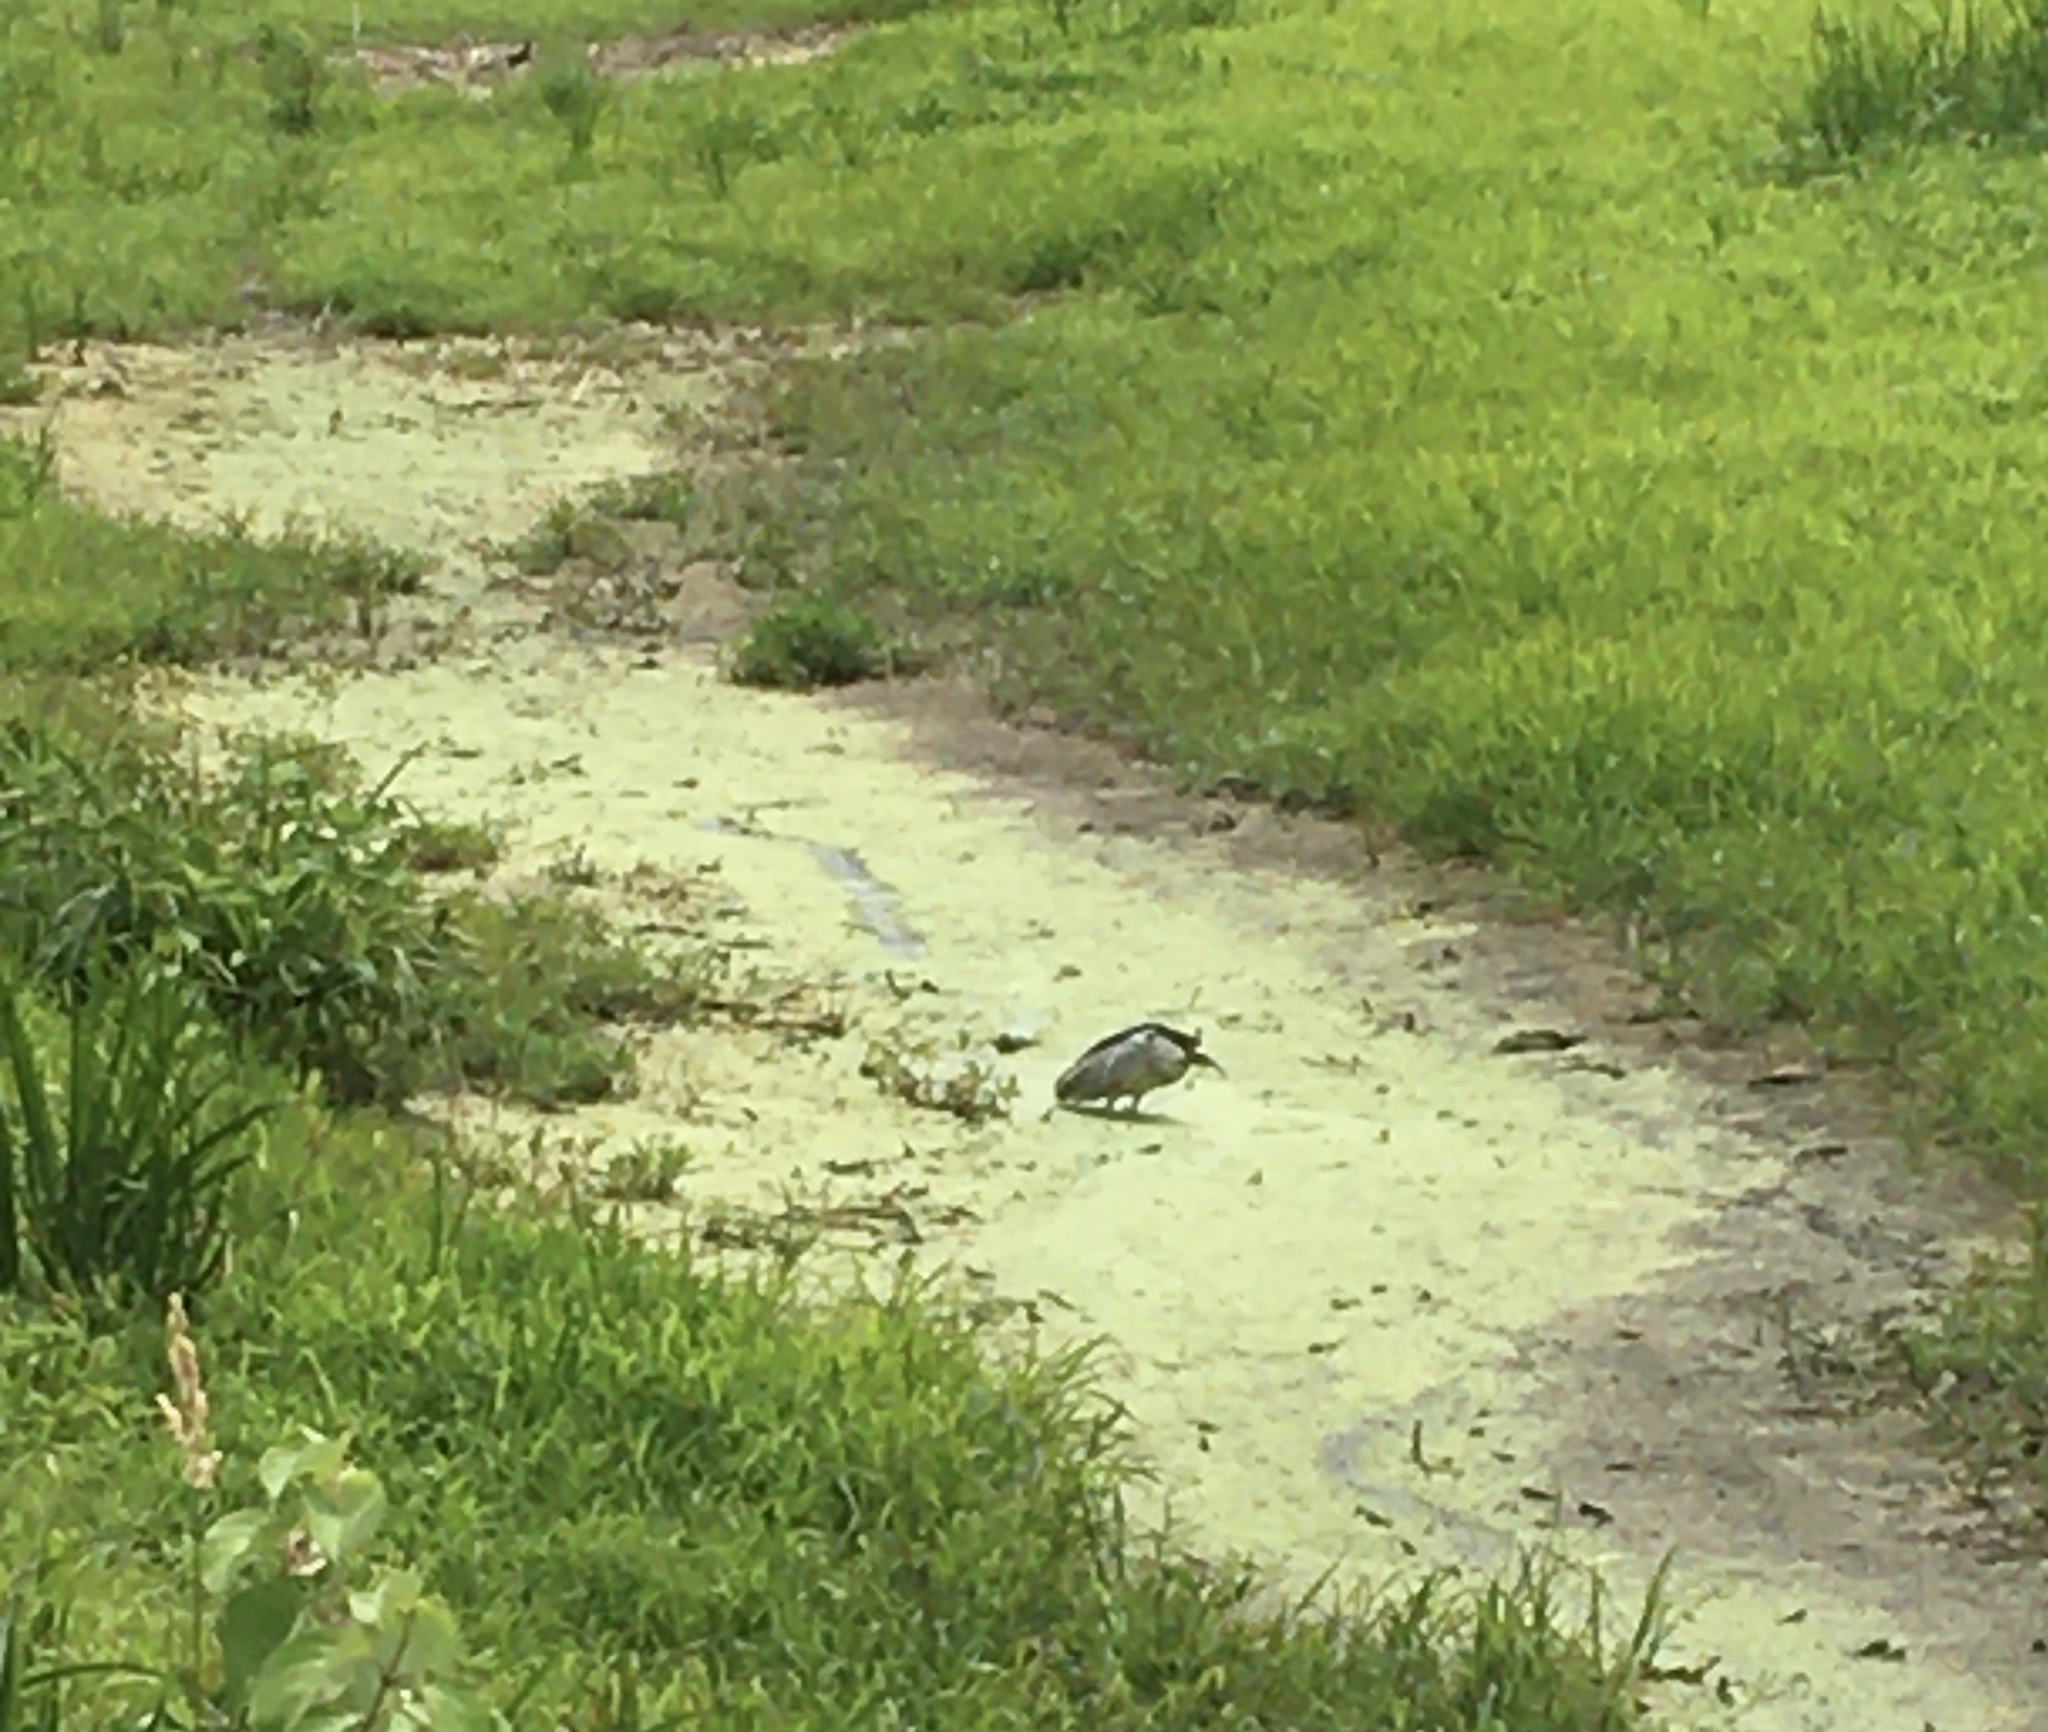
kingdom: Animalia
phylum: Chordata
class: Aves
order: Pelecaniformes
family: Ardeidae
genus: Nycticorax
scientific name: Nycticorax nycticorax
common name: Black-crowned night heron
